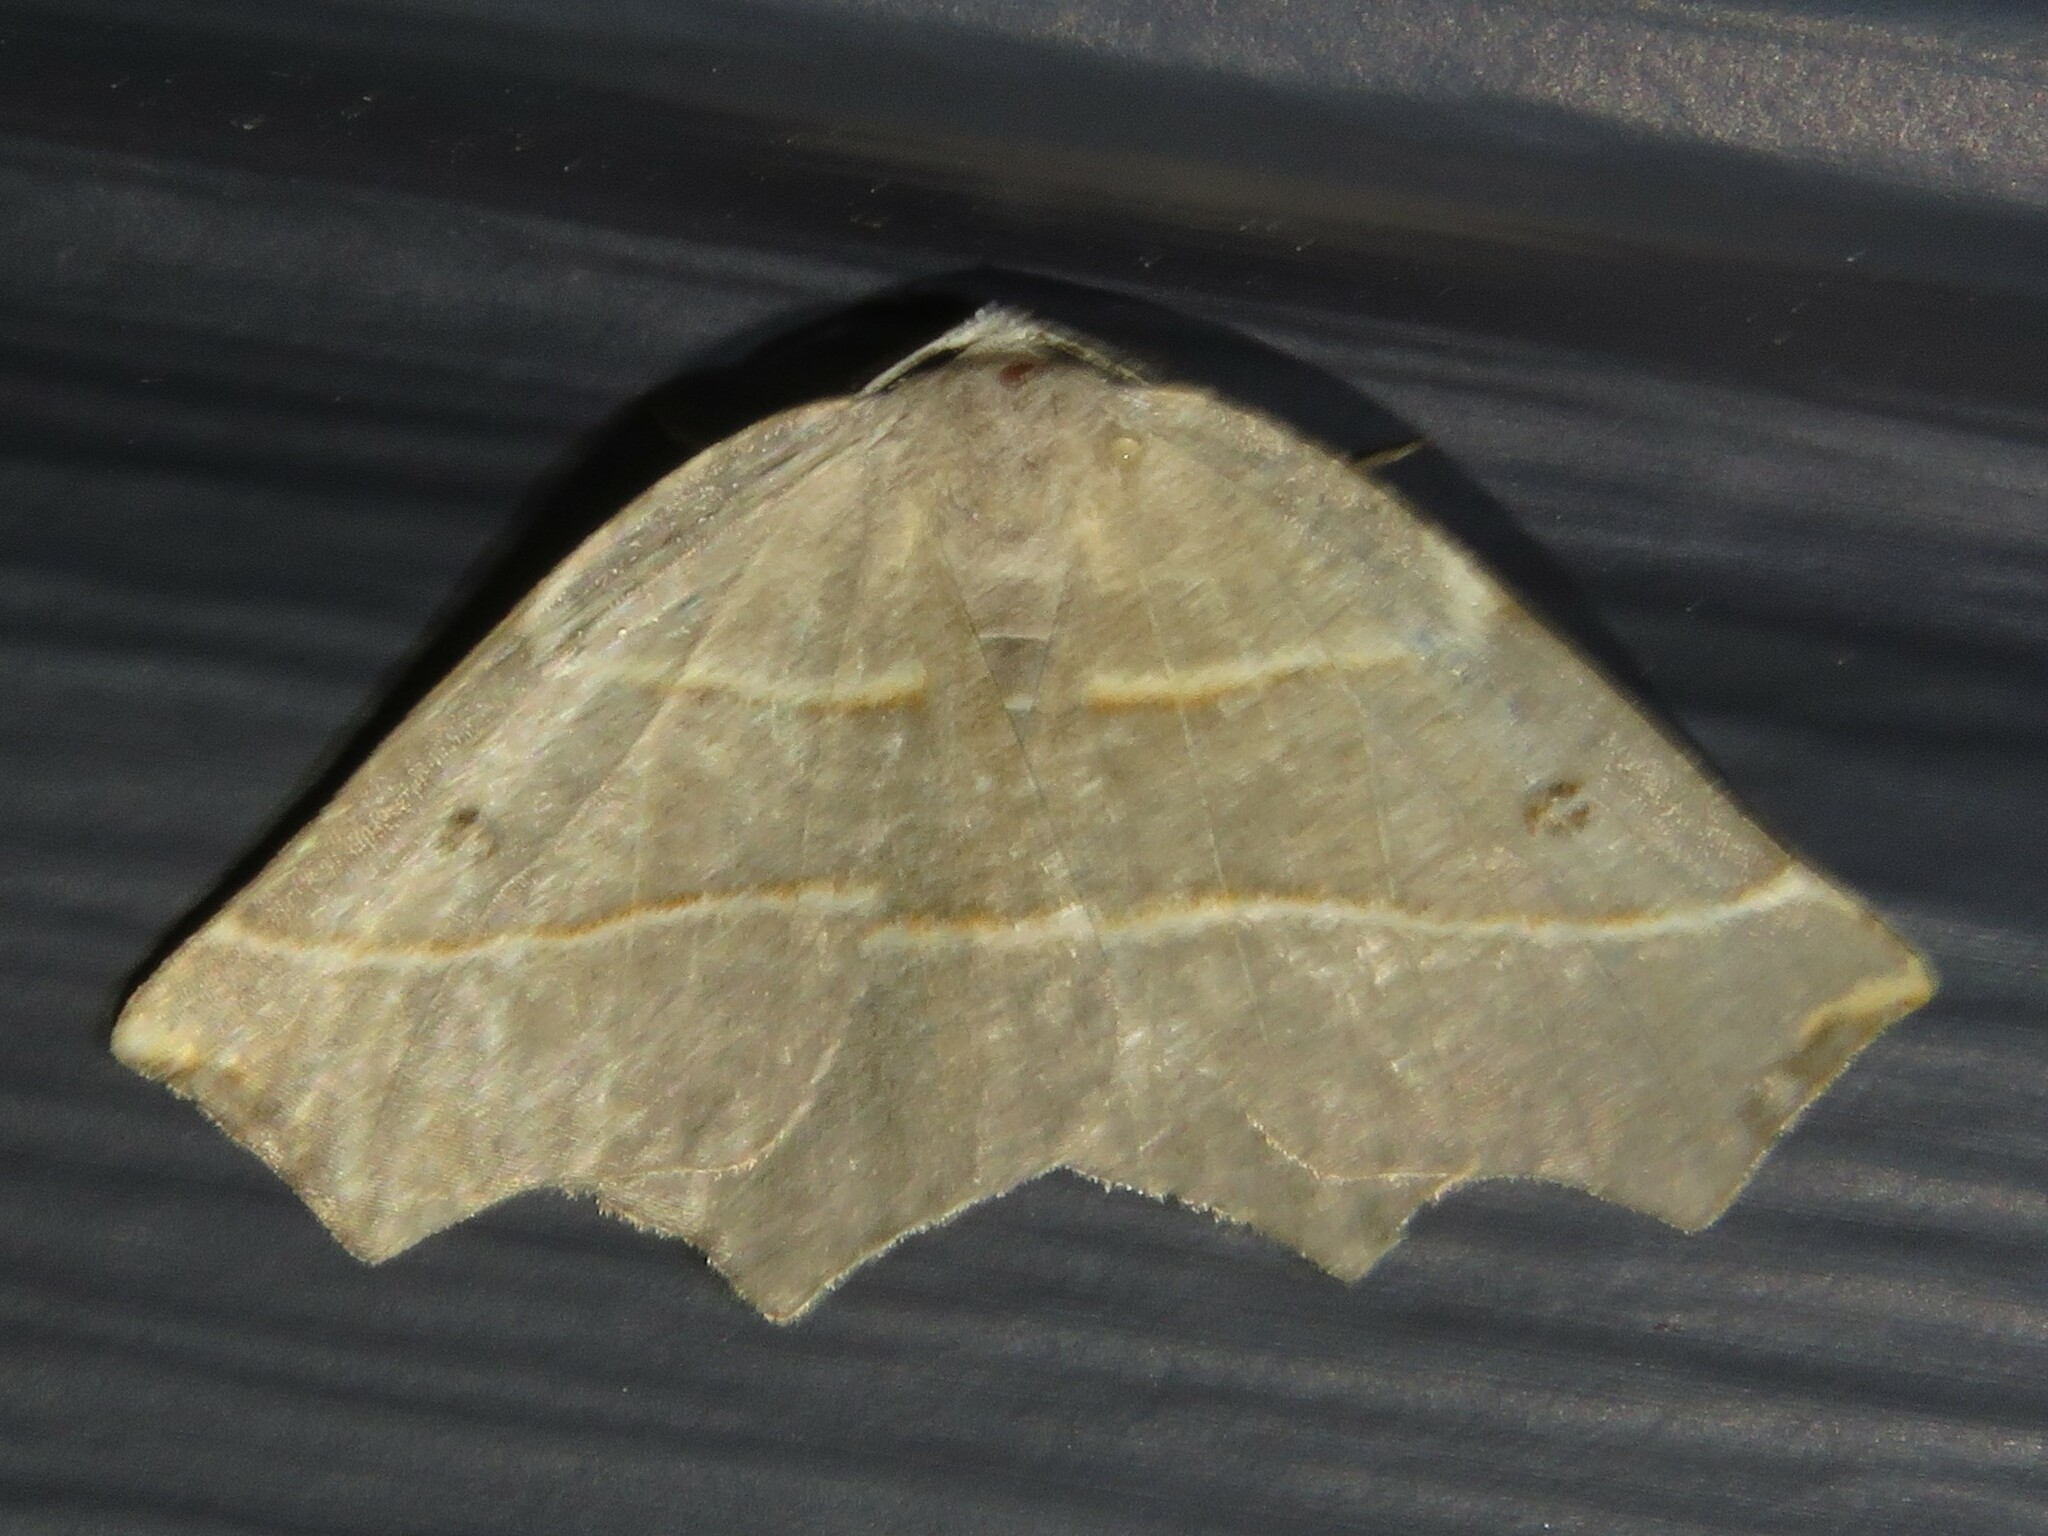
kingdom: Animalia
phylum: Arthropoda
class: Insecta
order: Lepidoptera
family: Geometridae
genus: Metanema
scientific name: Metanema inatomaria
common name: Pale metanema
